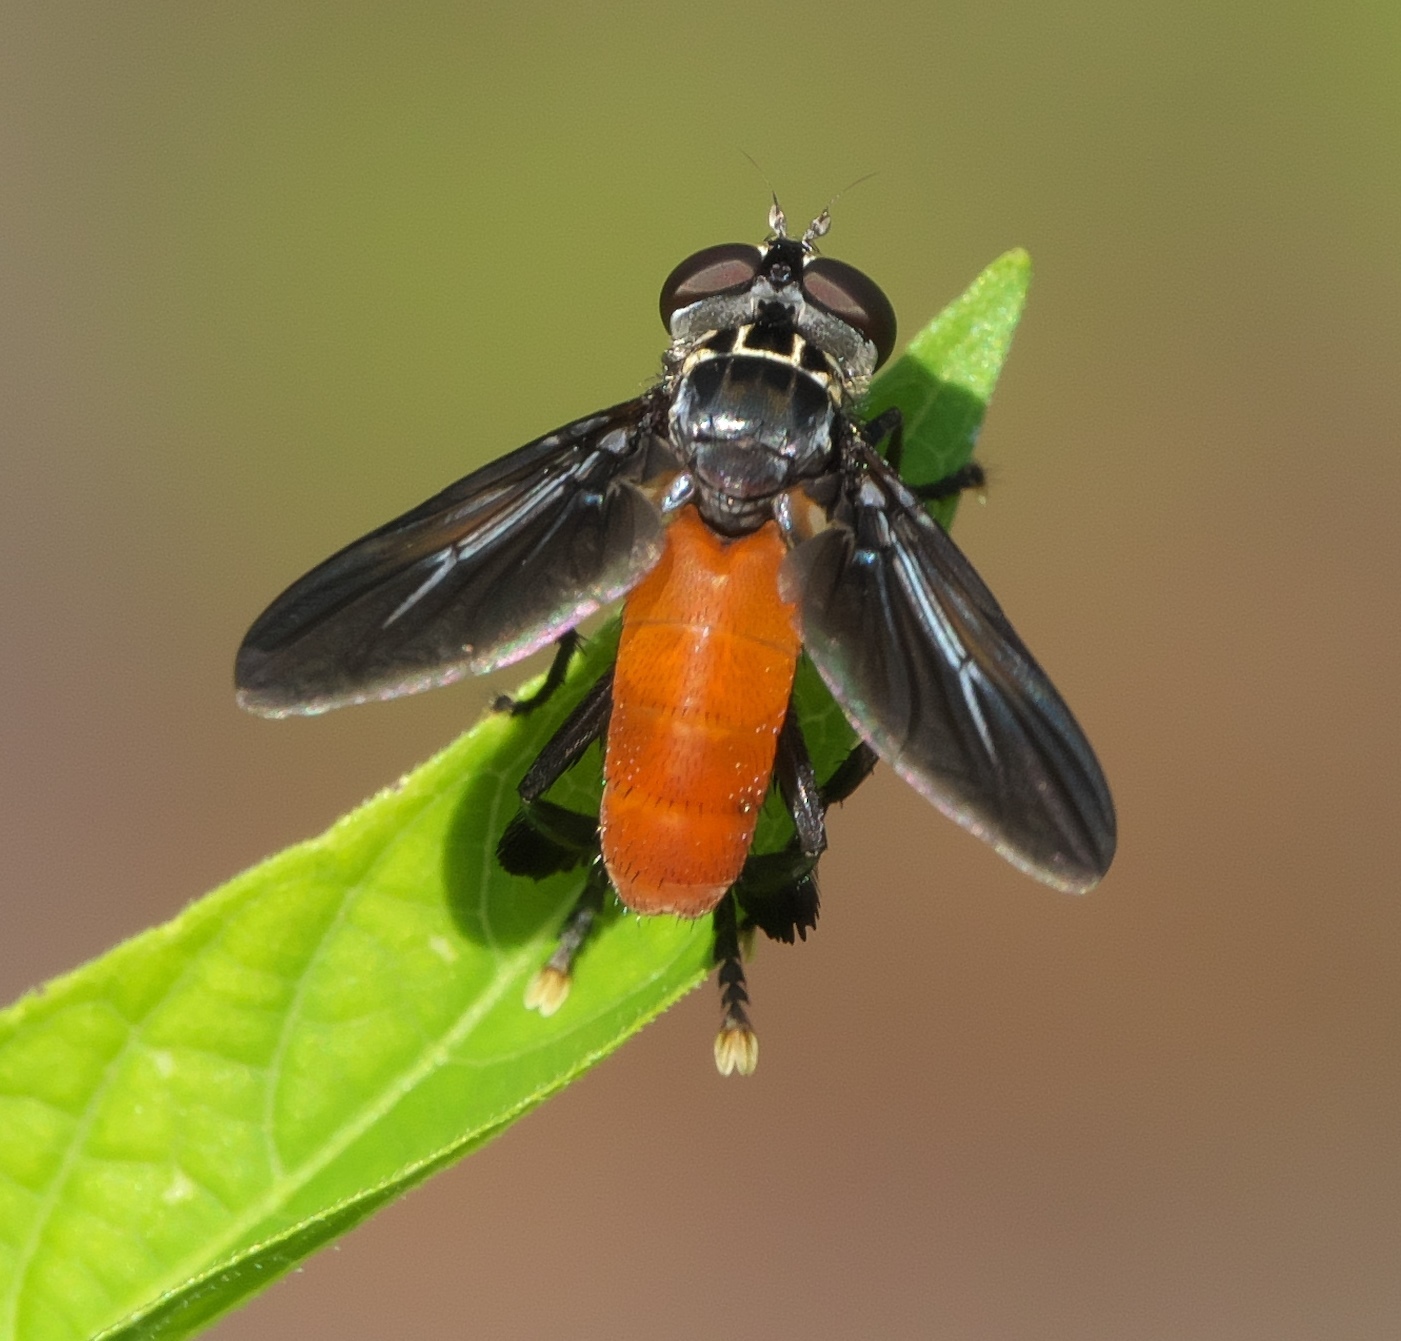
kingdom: Animalia
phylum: Arthropoda
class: Insecta
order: Diptera
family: Tachinidae
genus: Trichopoda
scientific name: Trichopoda pennipes
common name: Tachinid fly
